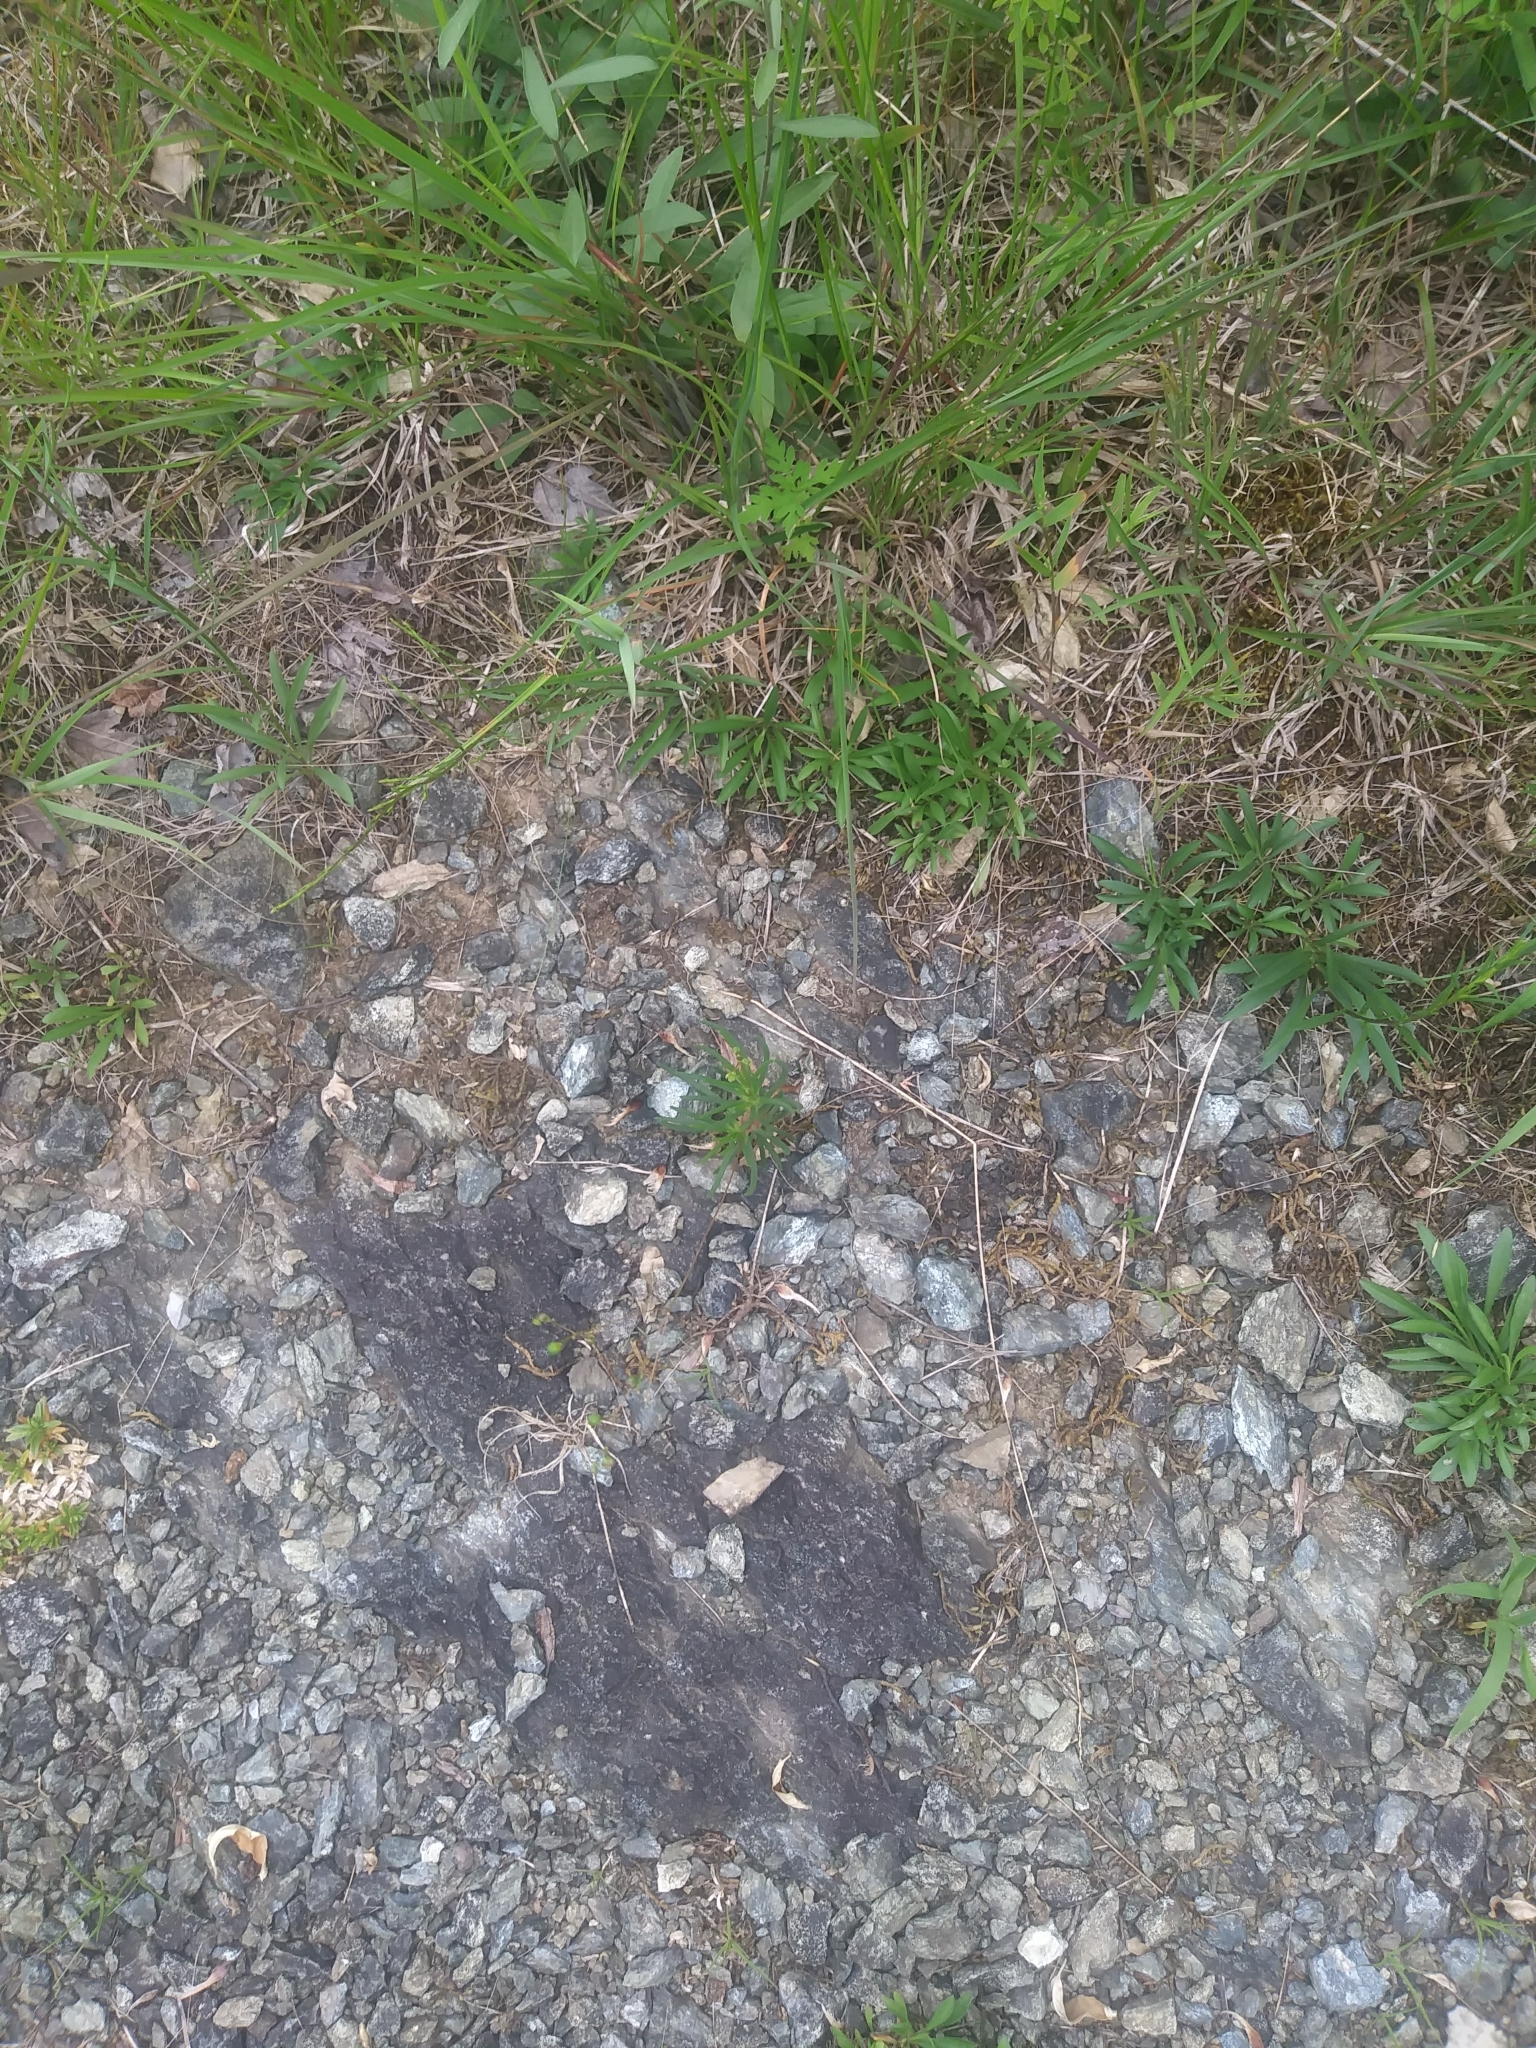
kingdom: Plantae
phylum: Tracheophyta
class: Magnoliopsida
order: Caryophyllales
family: Montiaceae
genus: Phemeranthus
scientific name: Phemeranthus teretifolius
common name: Quill fameflower
